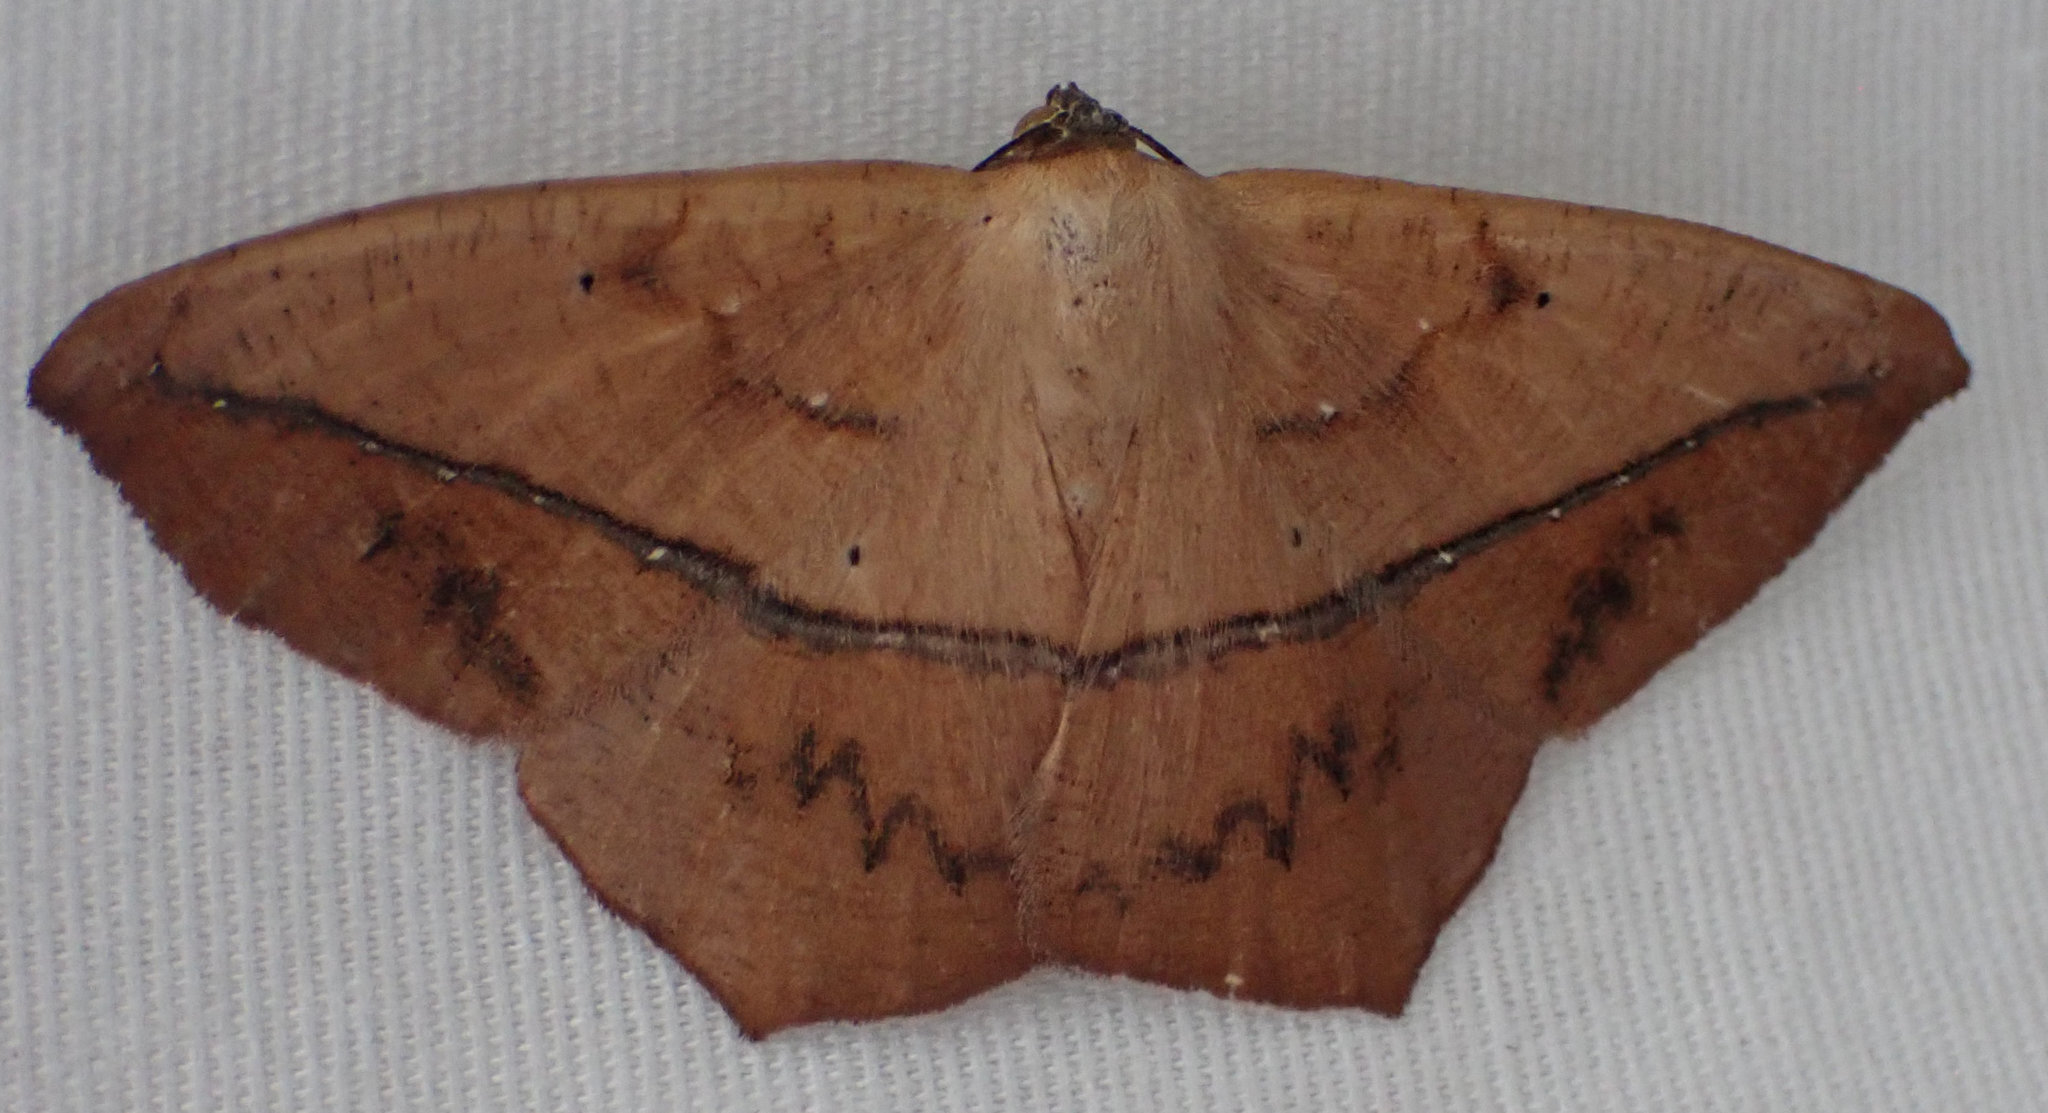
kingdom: Animalia
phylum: Arthropoda
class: Insecta
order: Lepidoptera
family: Geometridae
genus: Prochoerodes
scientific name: Prochoerodes lineola
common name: Large maple spanworm
